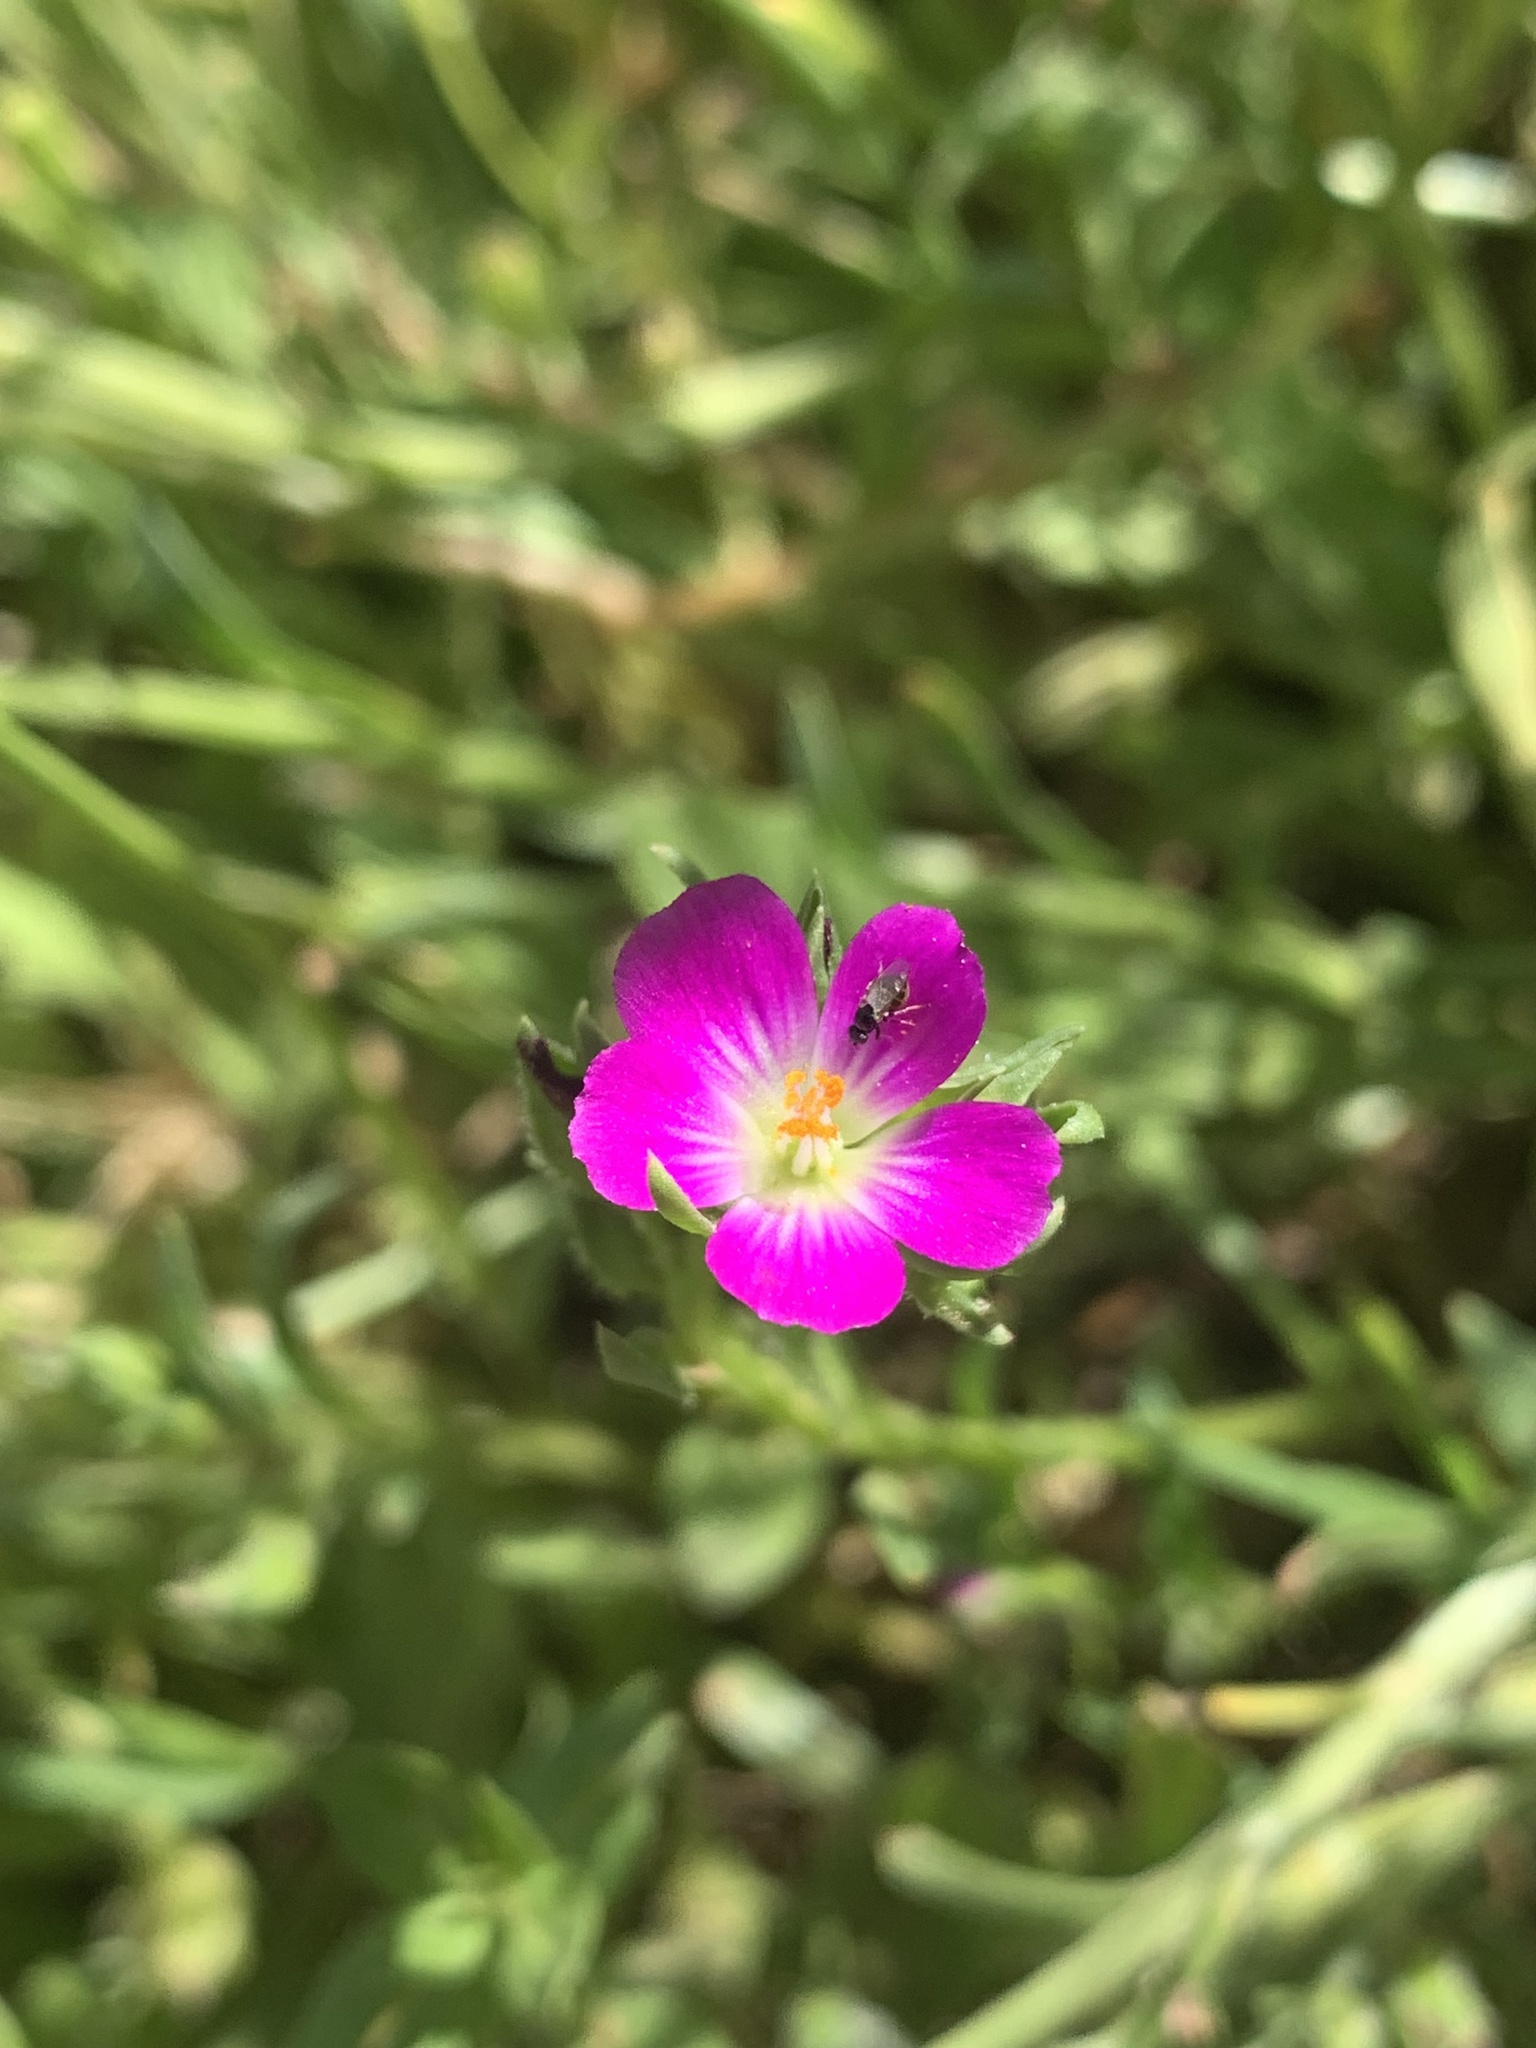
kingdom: Plantae
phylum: Tracheophyta
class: Magnoliopsida
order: Caryophyllales
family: Montiaceae
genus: Calandrinia
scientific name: Calandrinia menziesii
